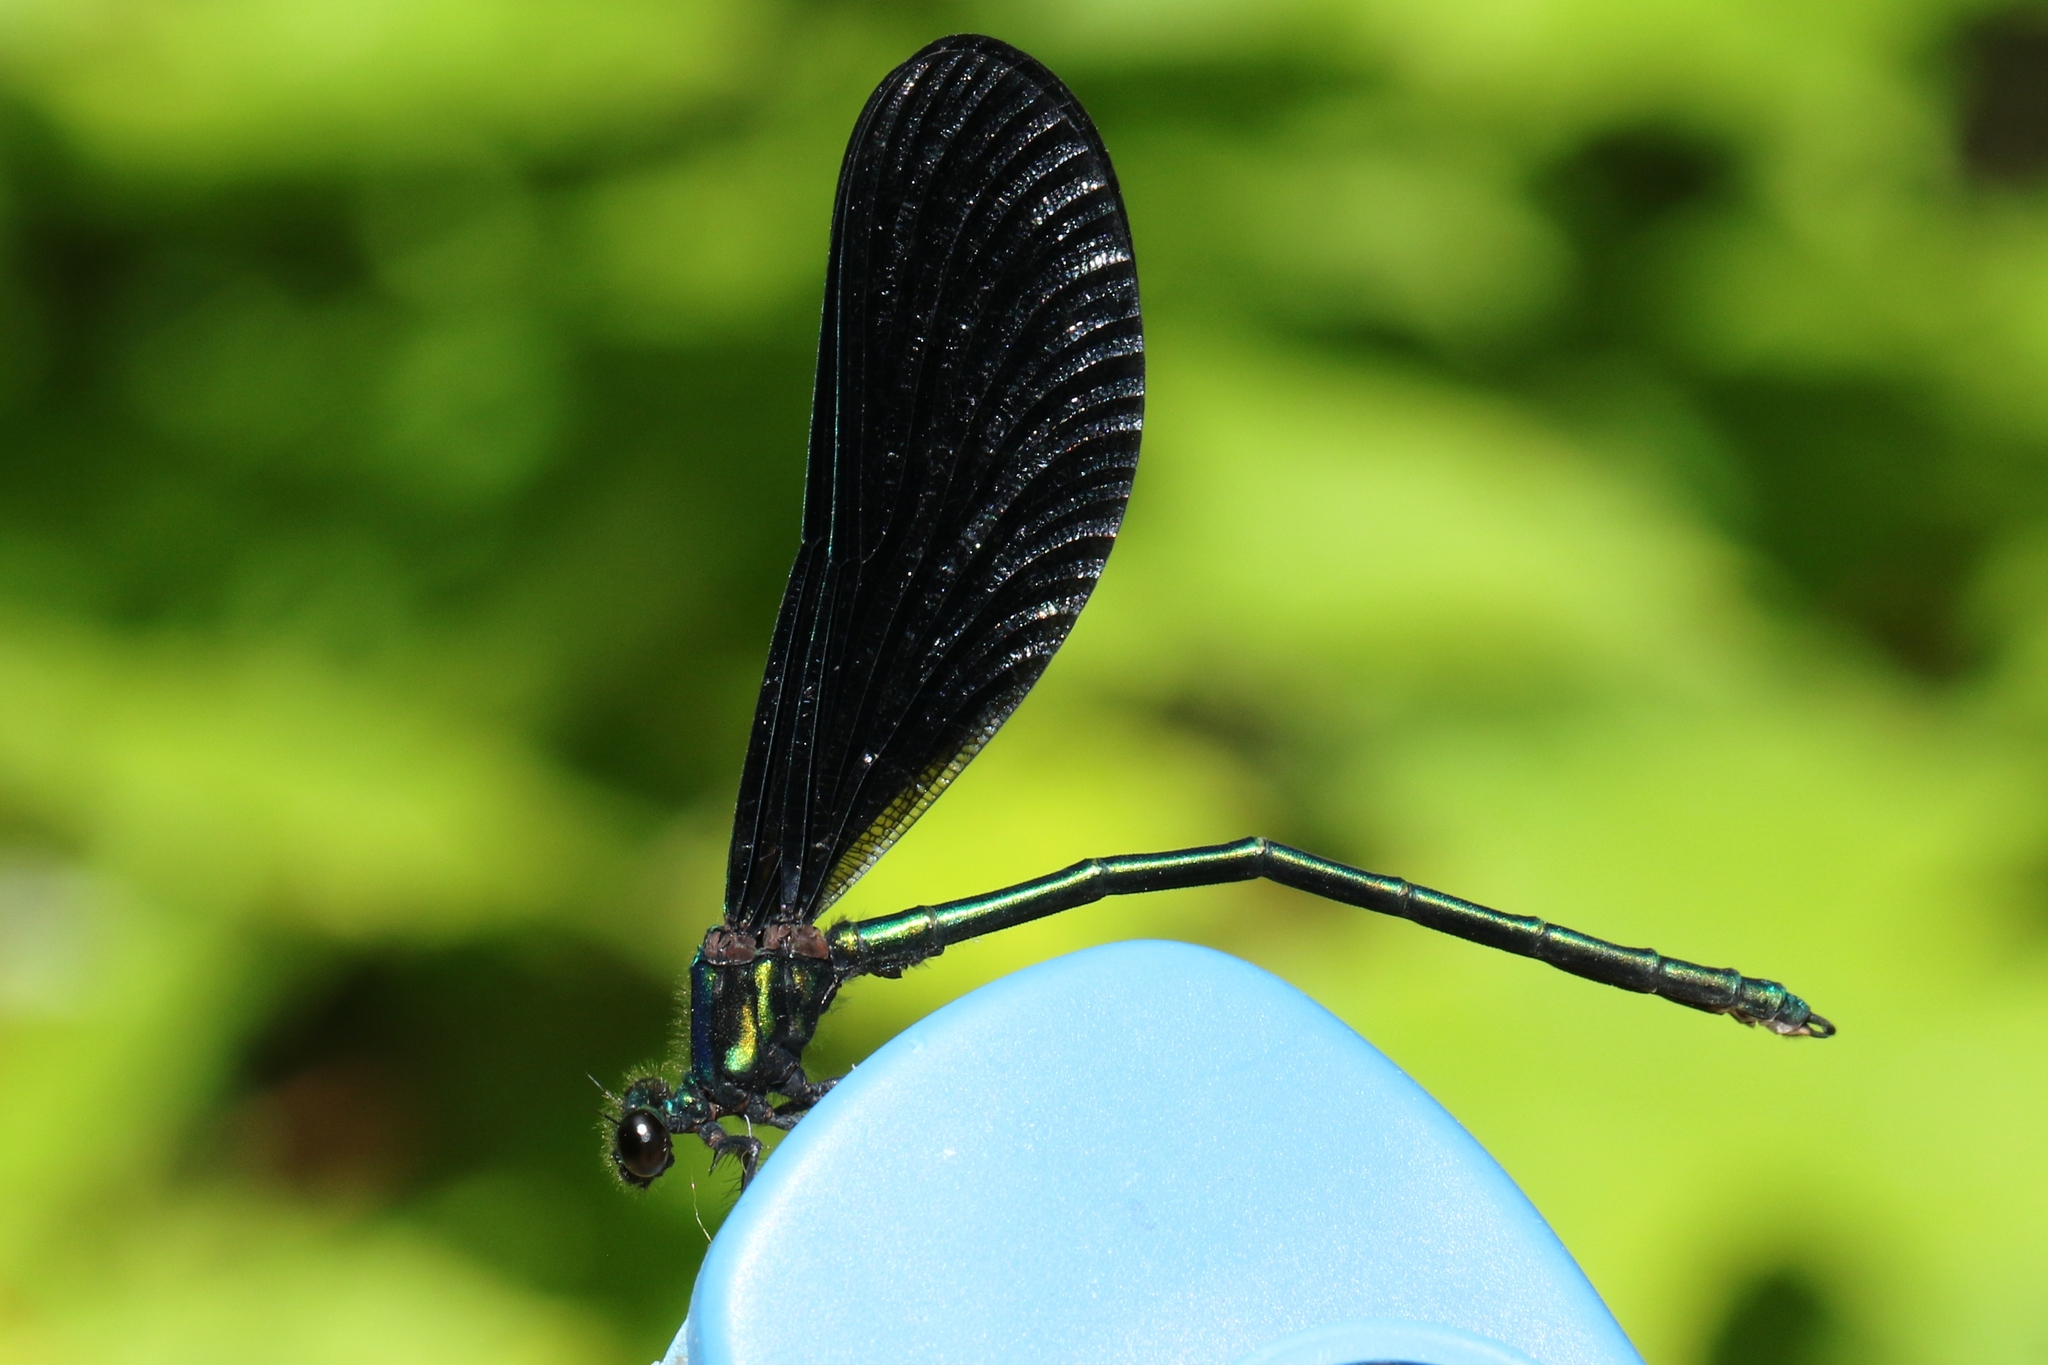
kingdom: Animalia
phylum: Arthropoda
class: Insecta
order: Odonata
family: Calopterygidae
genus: Calopteryx
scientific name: Calopteryx maculata
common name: Ebony jewelwing
